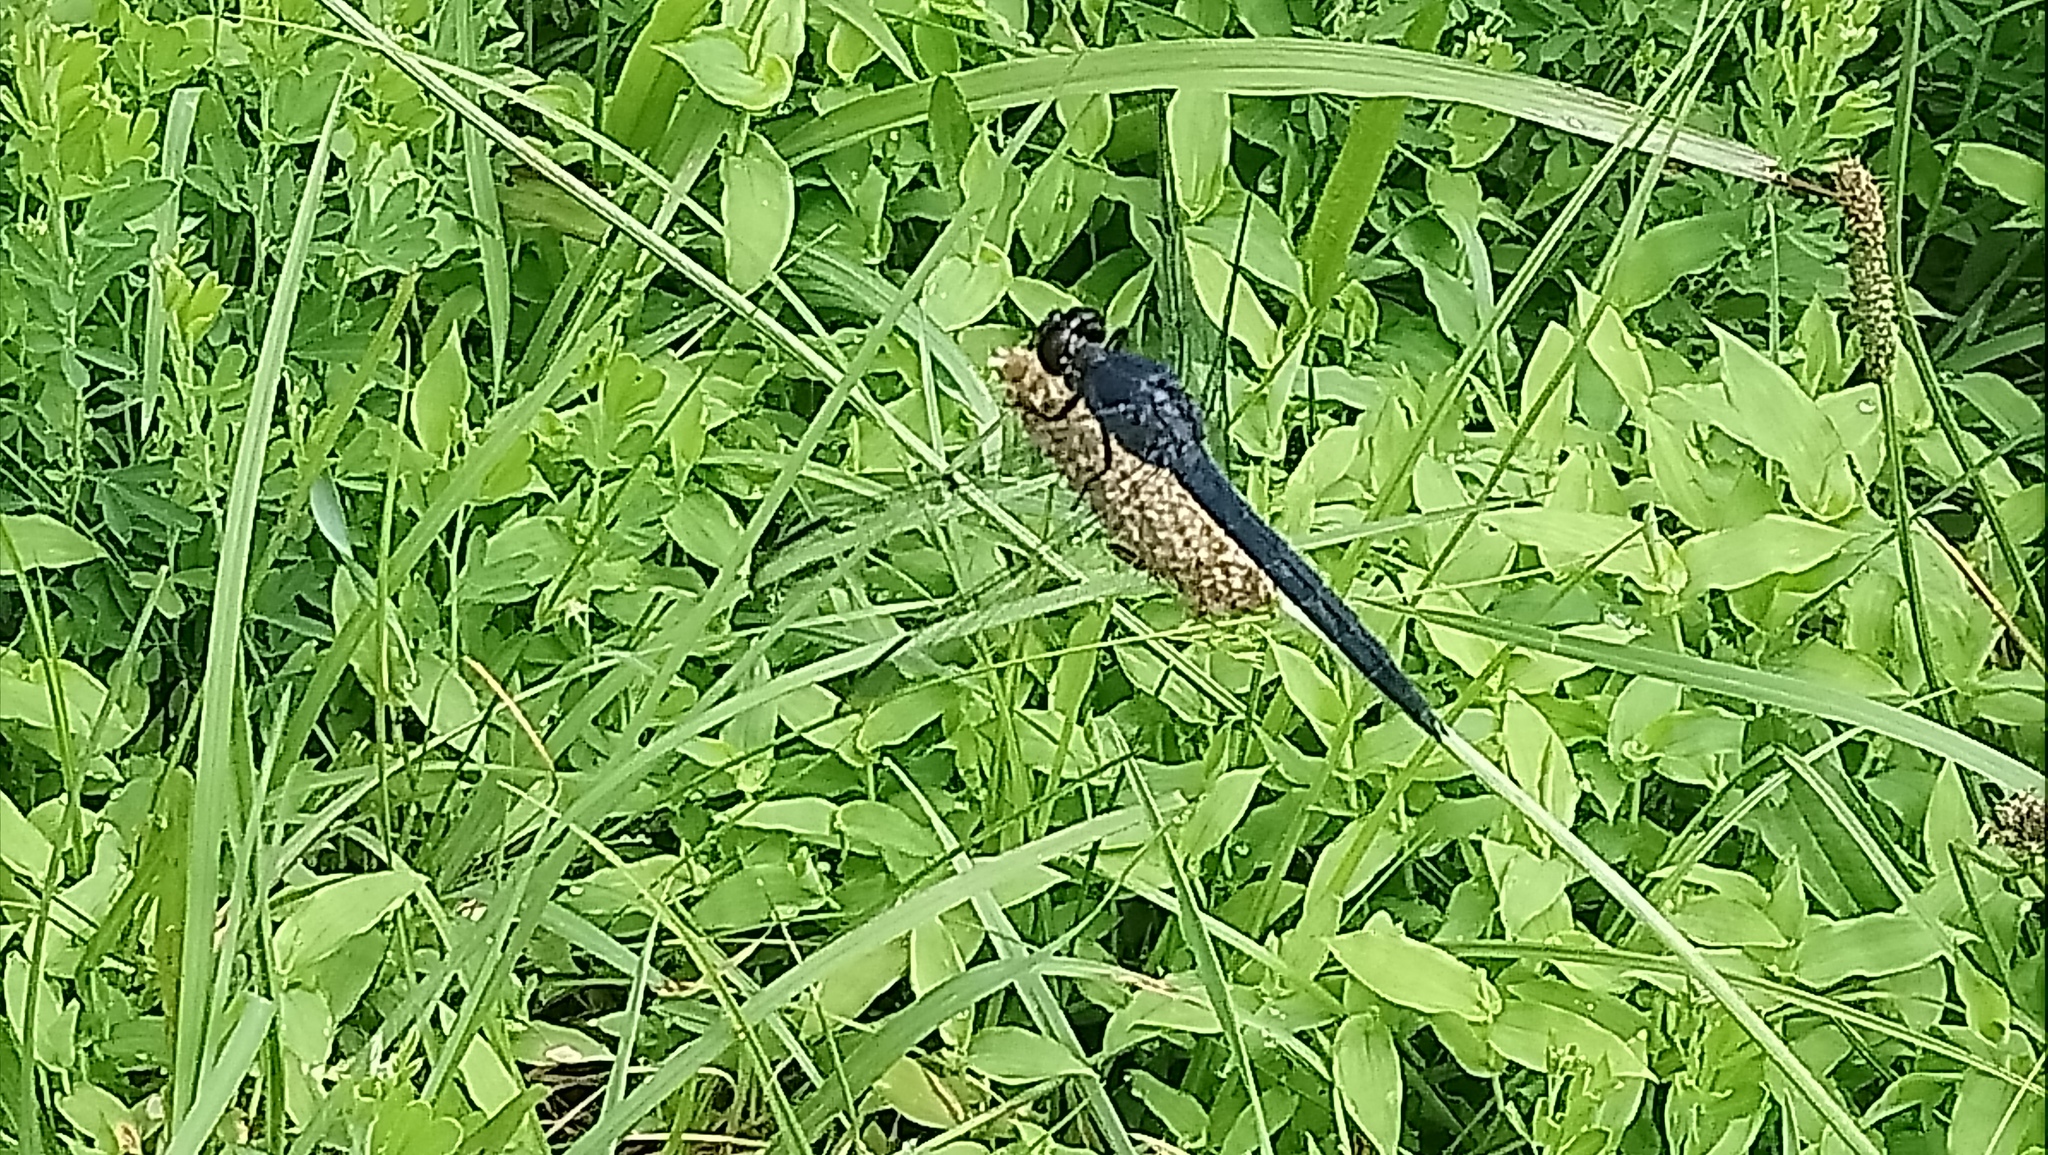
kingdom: Animalia
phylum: Arthropoda
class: Insecta
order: Odonata
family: Libellulidae
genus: Libellula
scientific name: Libellula incesta
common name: Slaty skimmer
